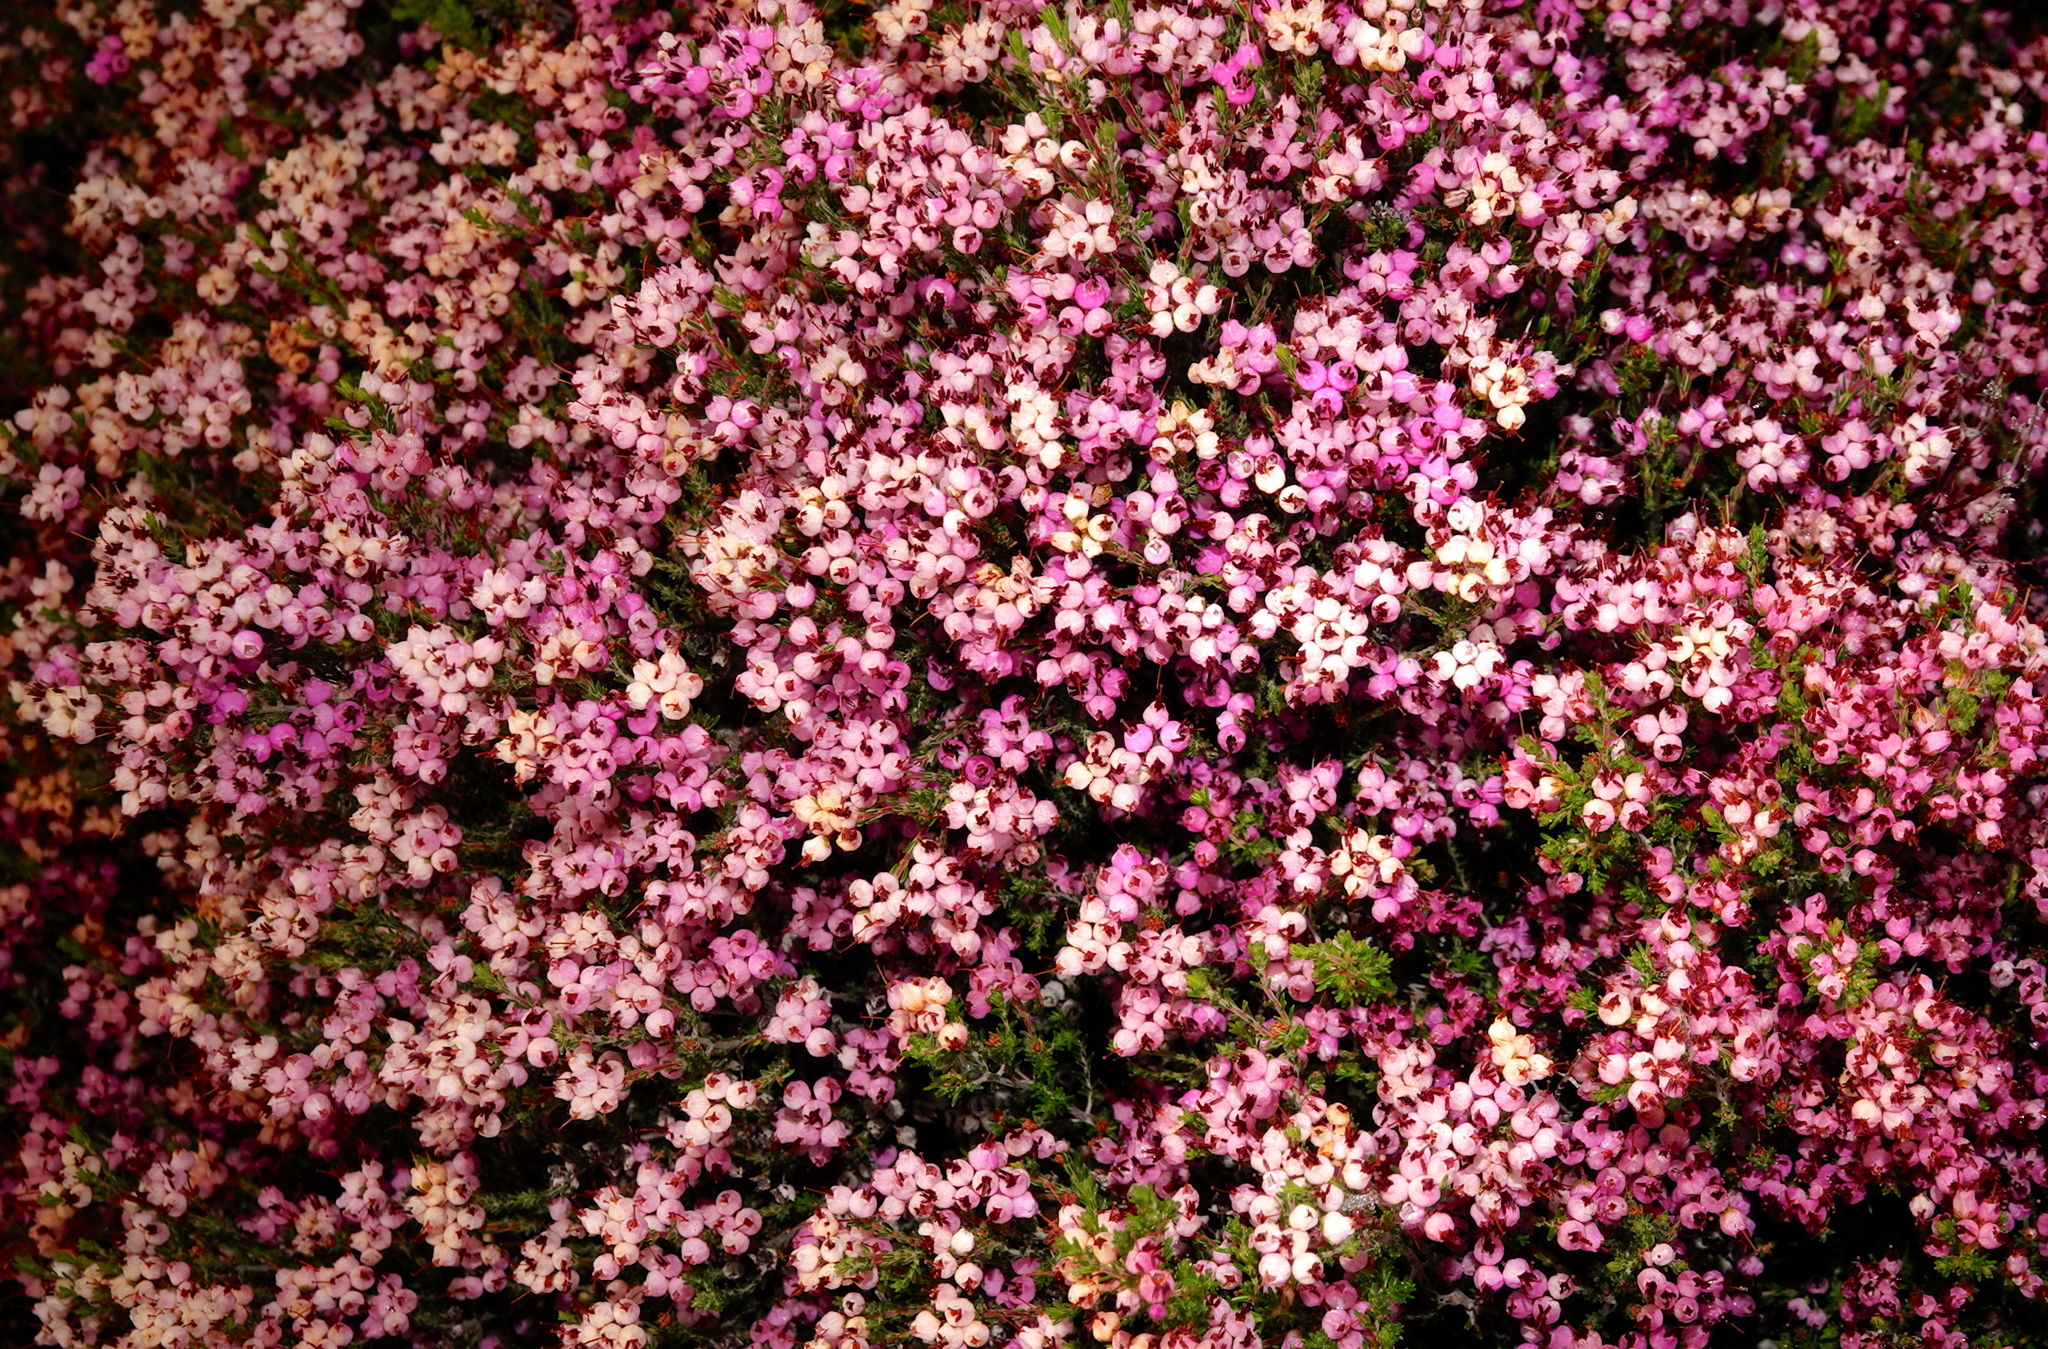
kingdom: Plantae
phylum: Tracheophyta
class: Magnoliopsida
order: Ericales
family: Ericaceae
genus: Erica
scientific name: Erica umbellata
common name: Dwarf spanish heath
